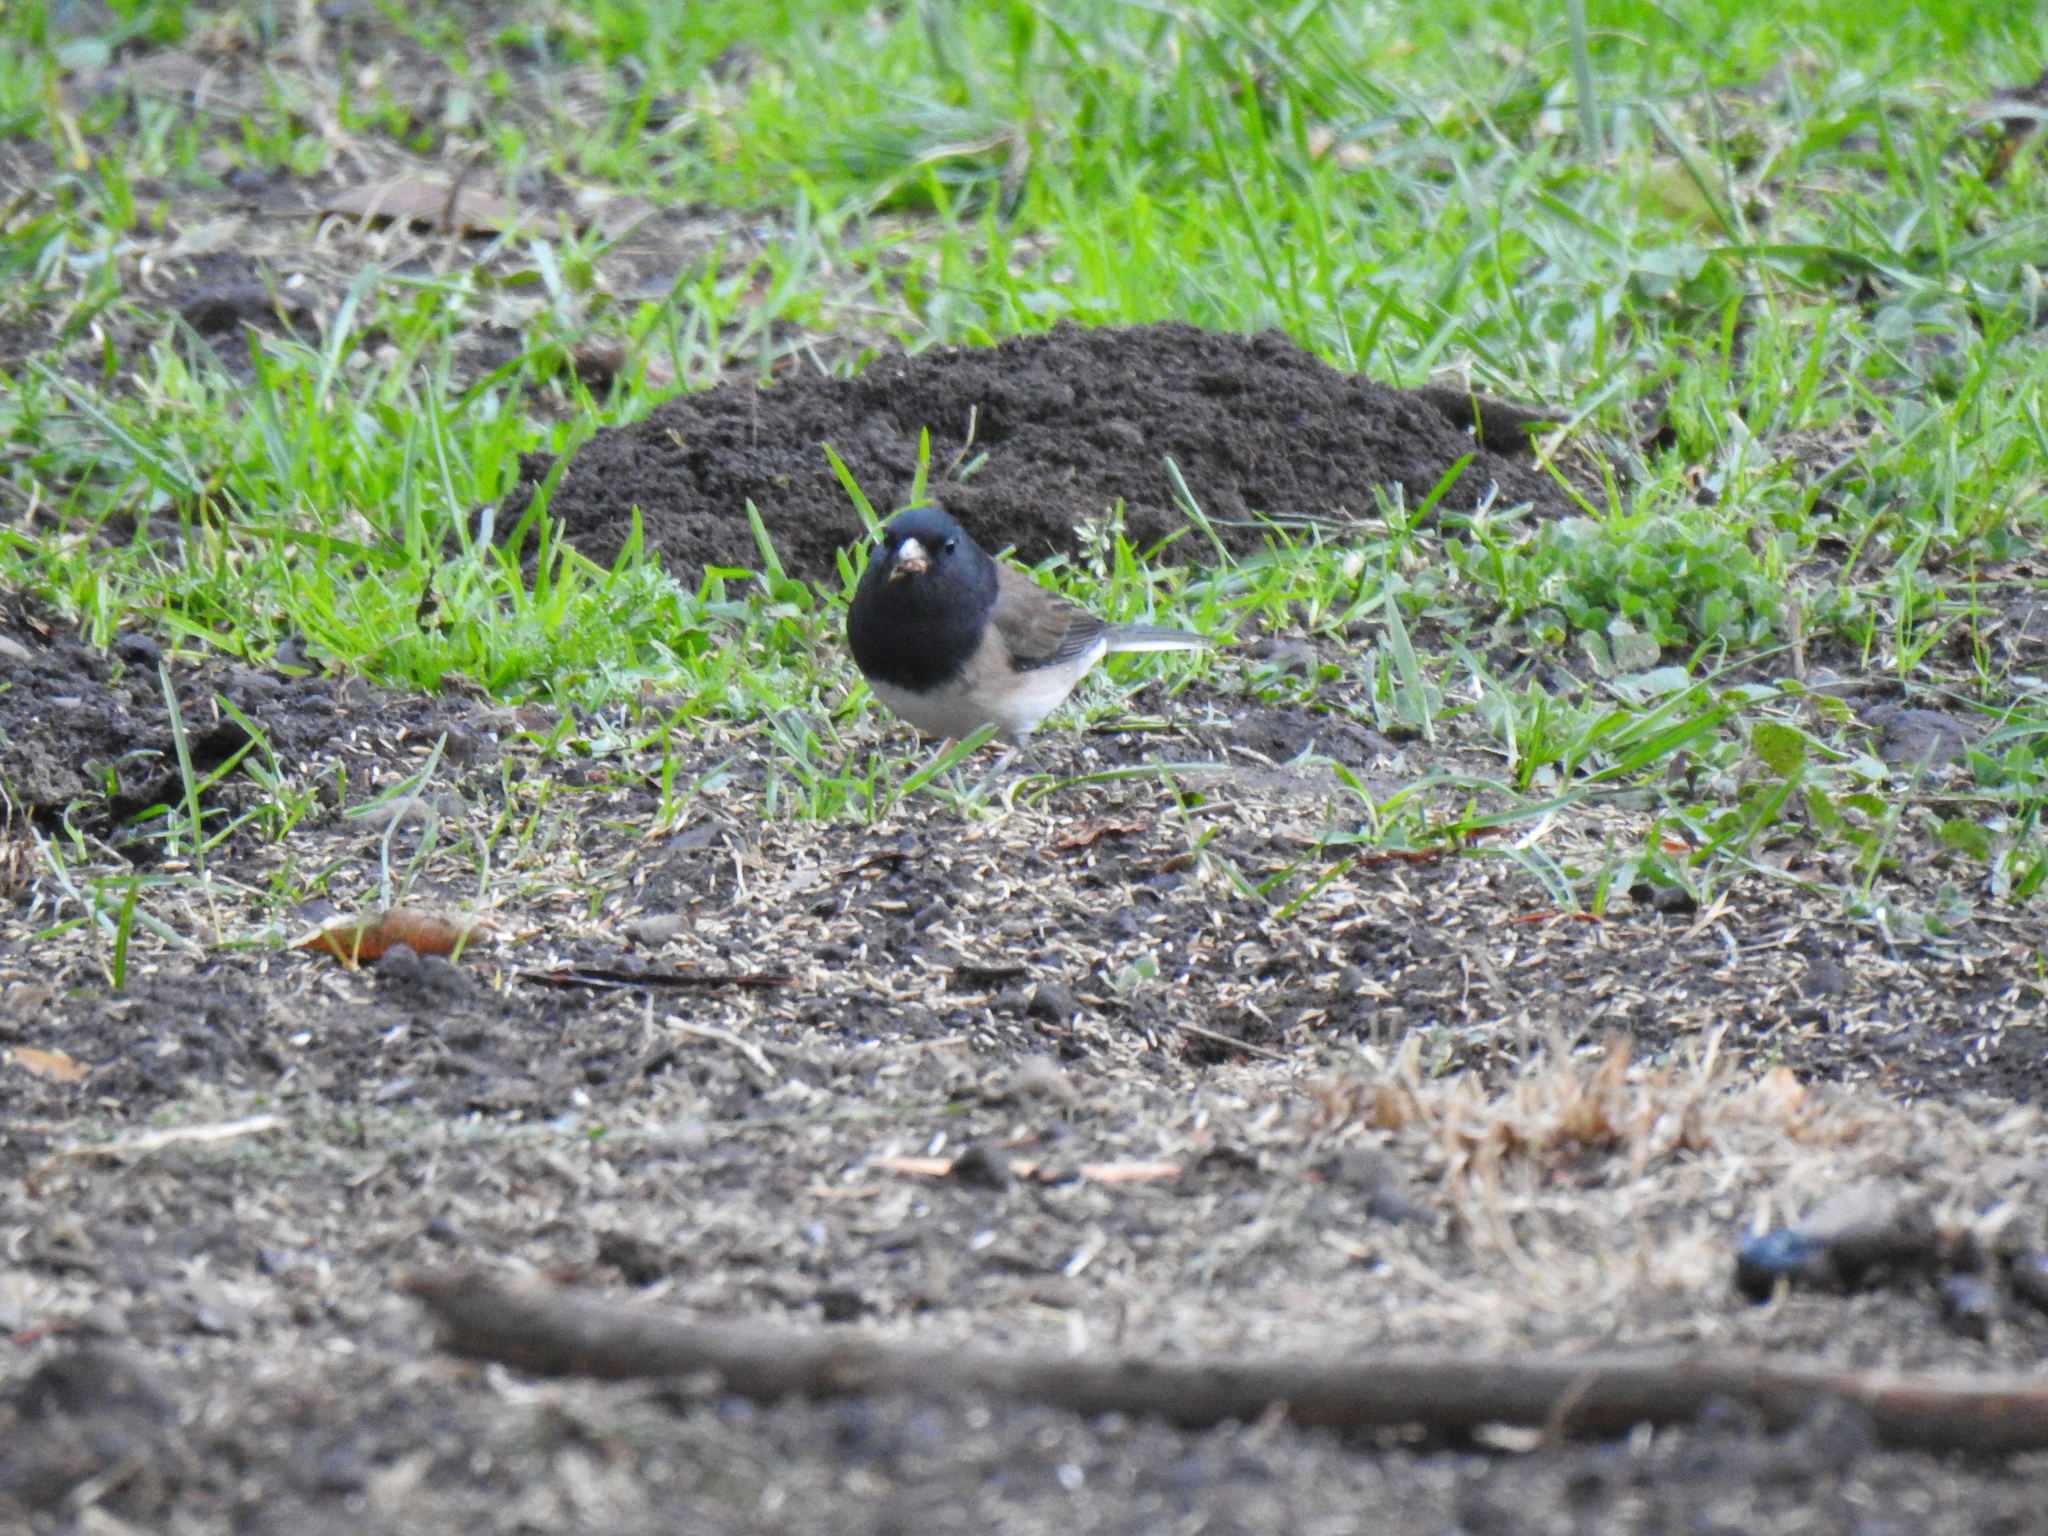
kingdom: Animalia
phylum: Chordata
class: Aves
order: Passeriformes
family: Passerellidae
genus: Junco
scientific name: Junco hyemalis
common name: Dark-eyed junco
